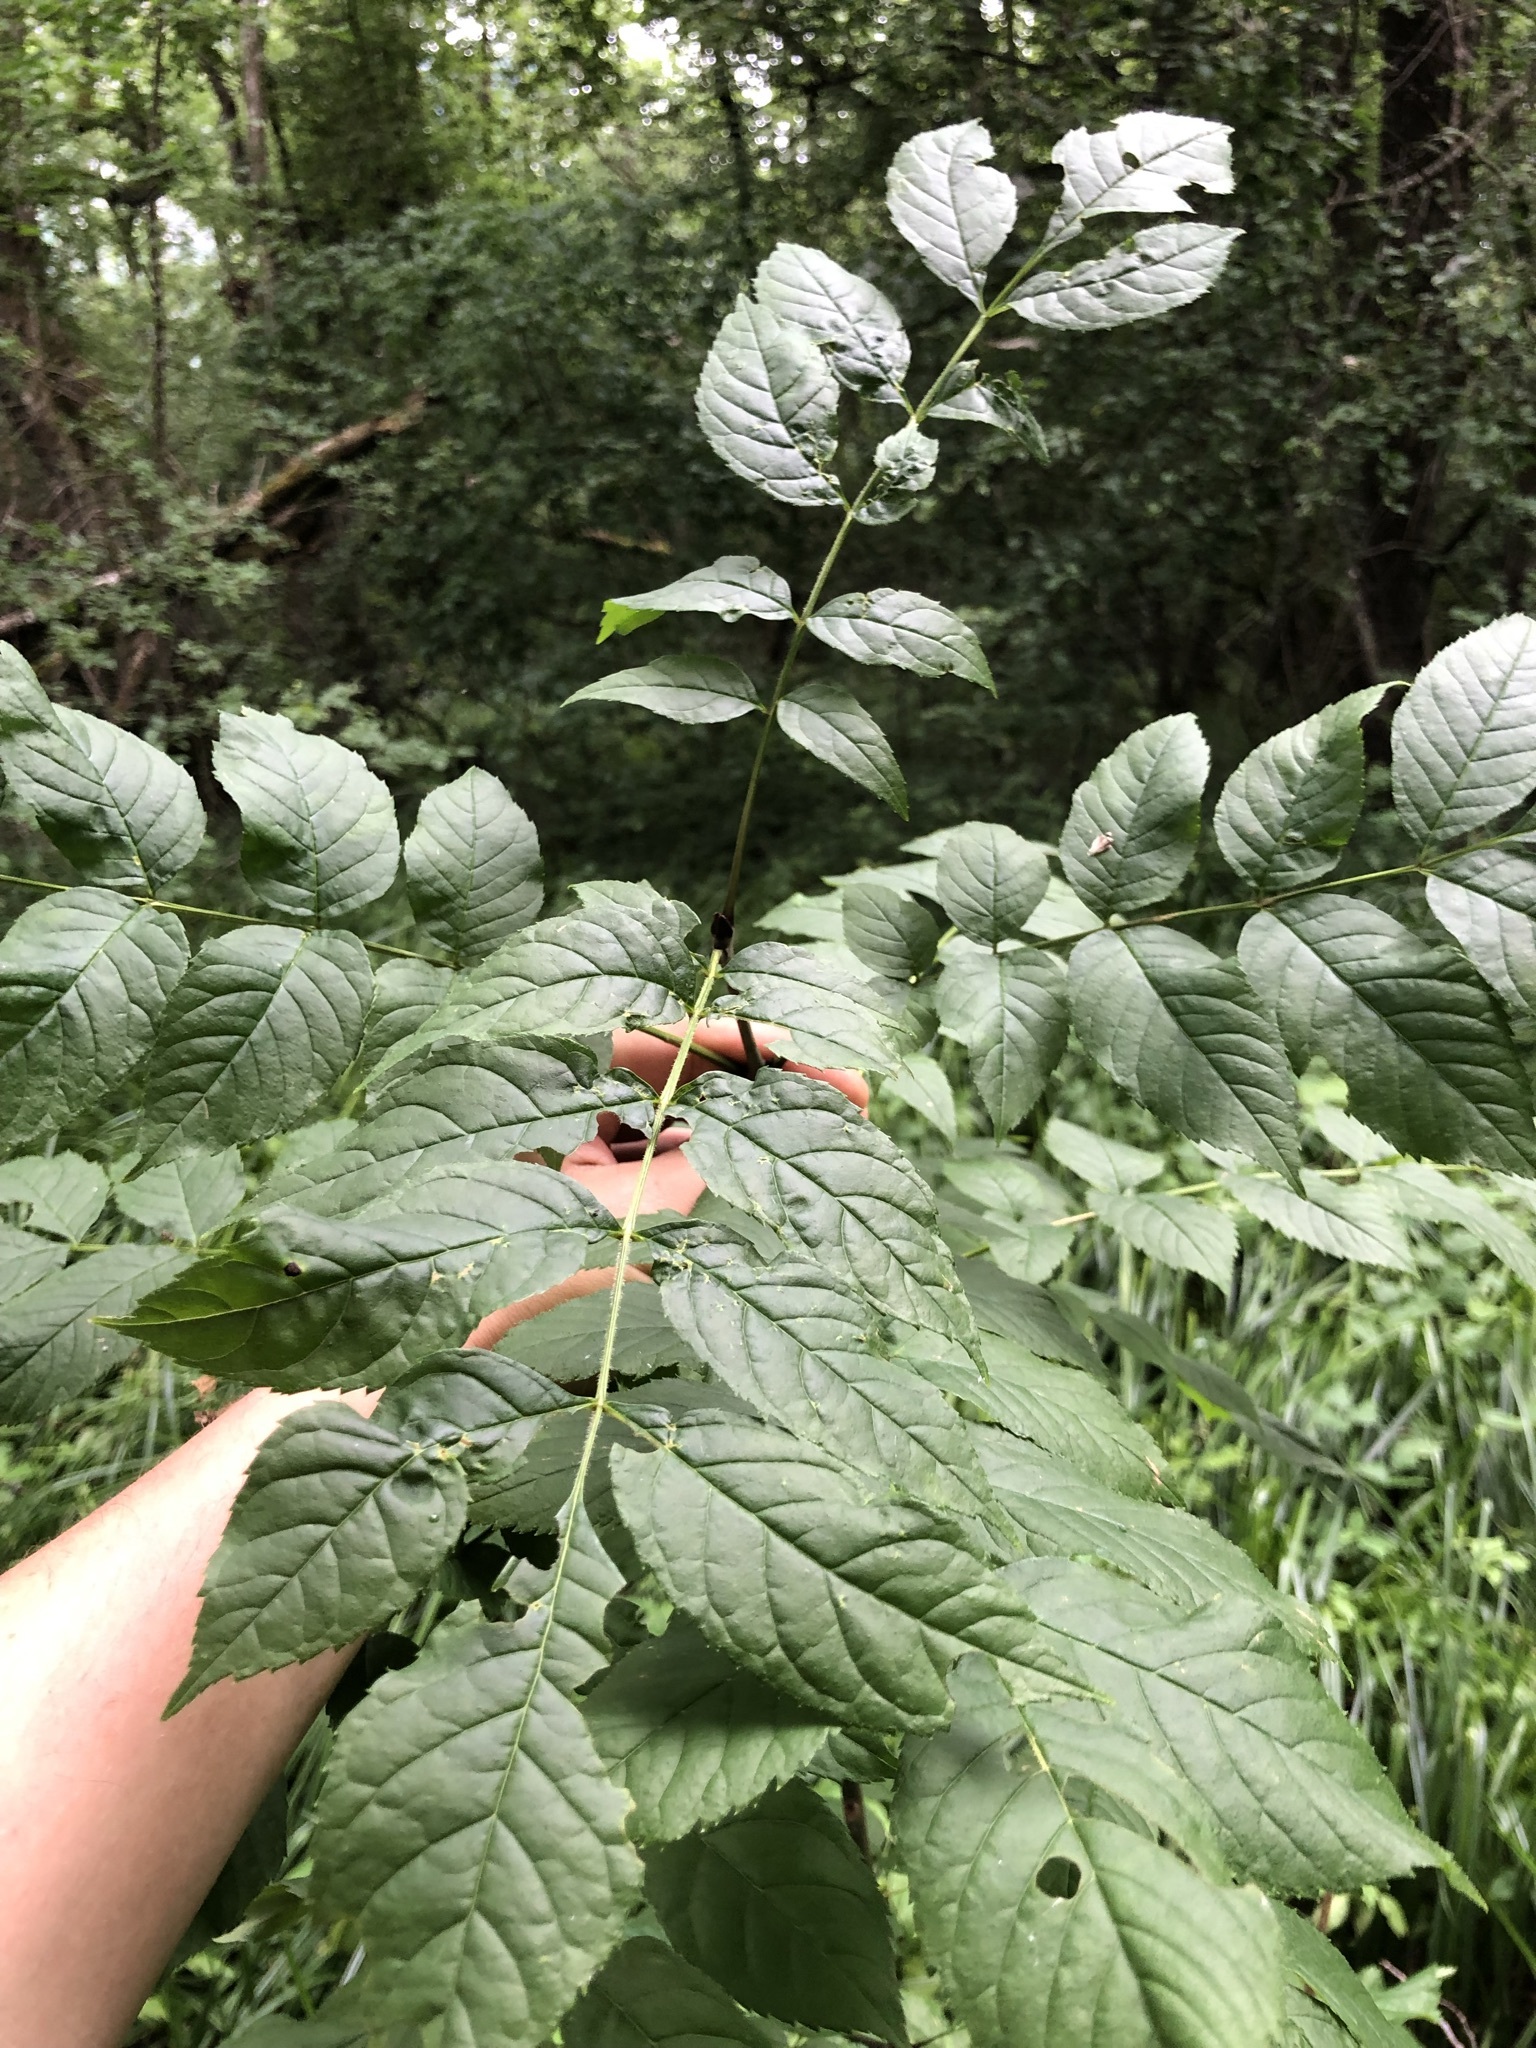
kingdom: Plantae
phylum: Tracheophyta
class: Magnoliopsida
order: Lamiales
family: Oleaceae
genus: Fraxinus
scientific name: Fraxinus excelsior
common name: European ash
